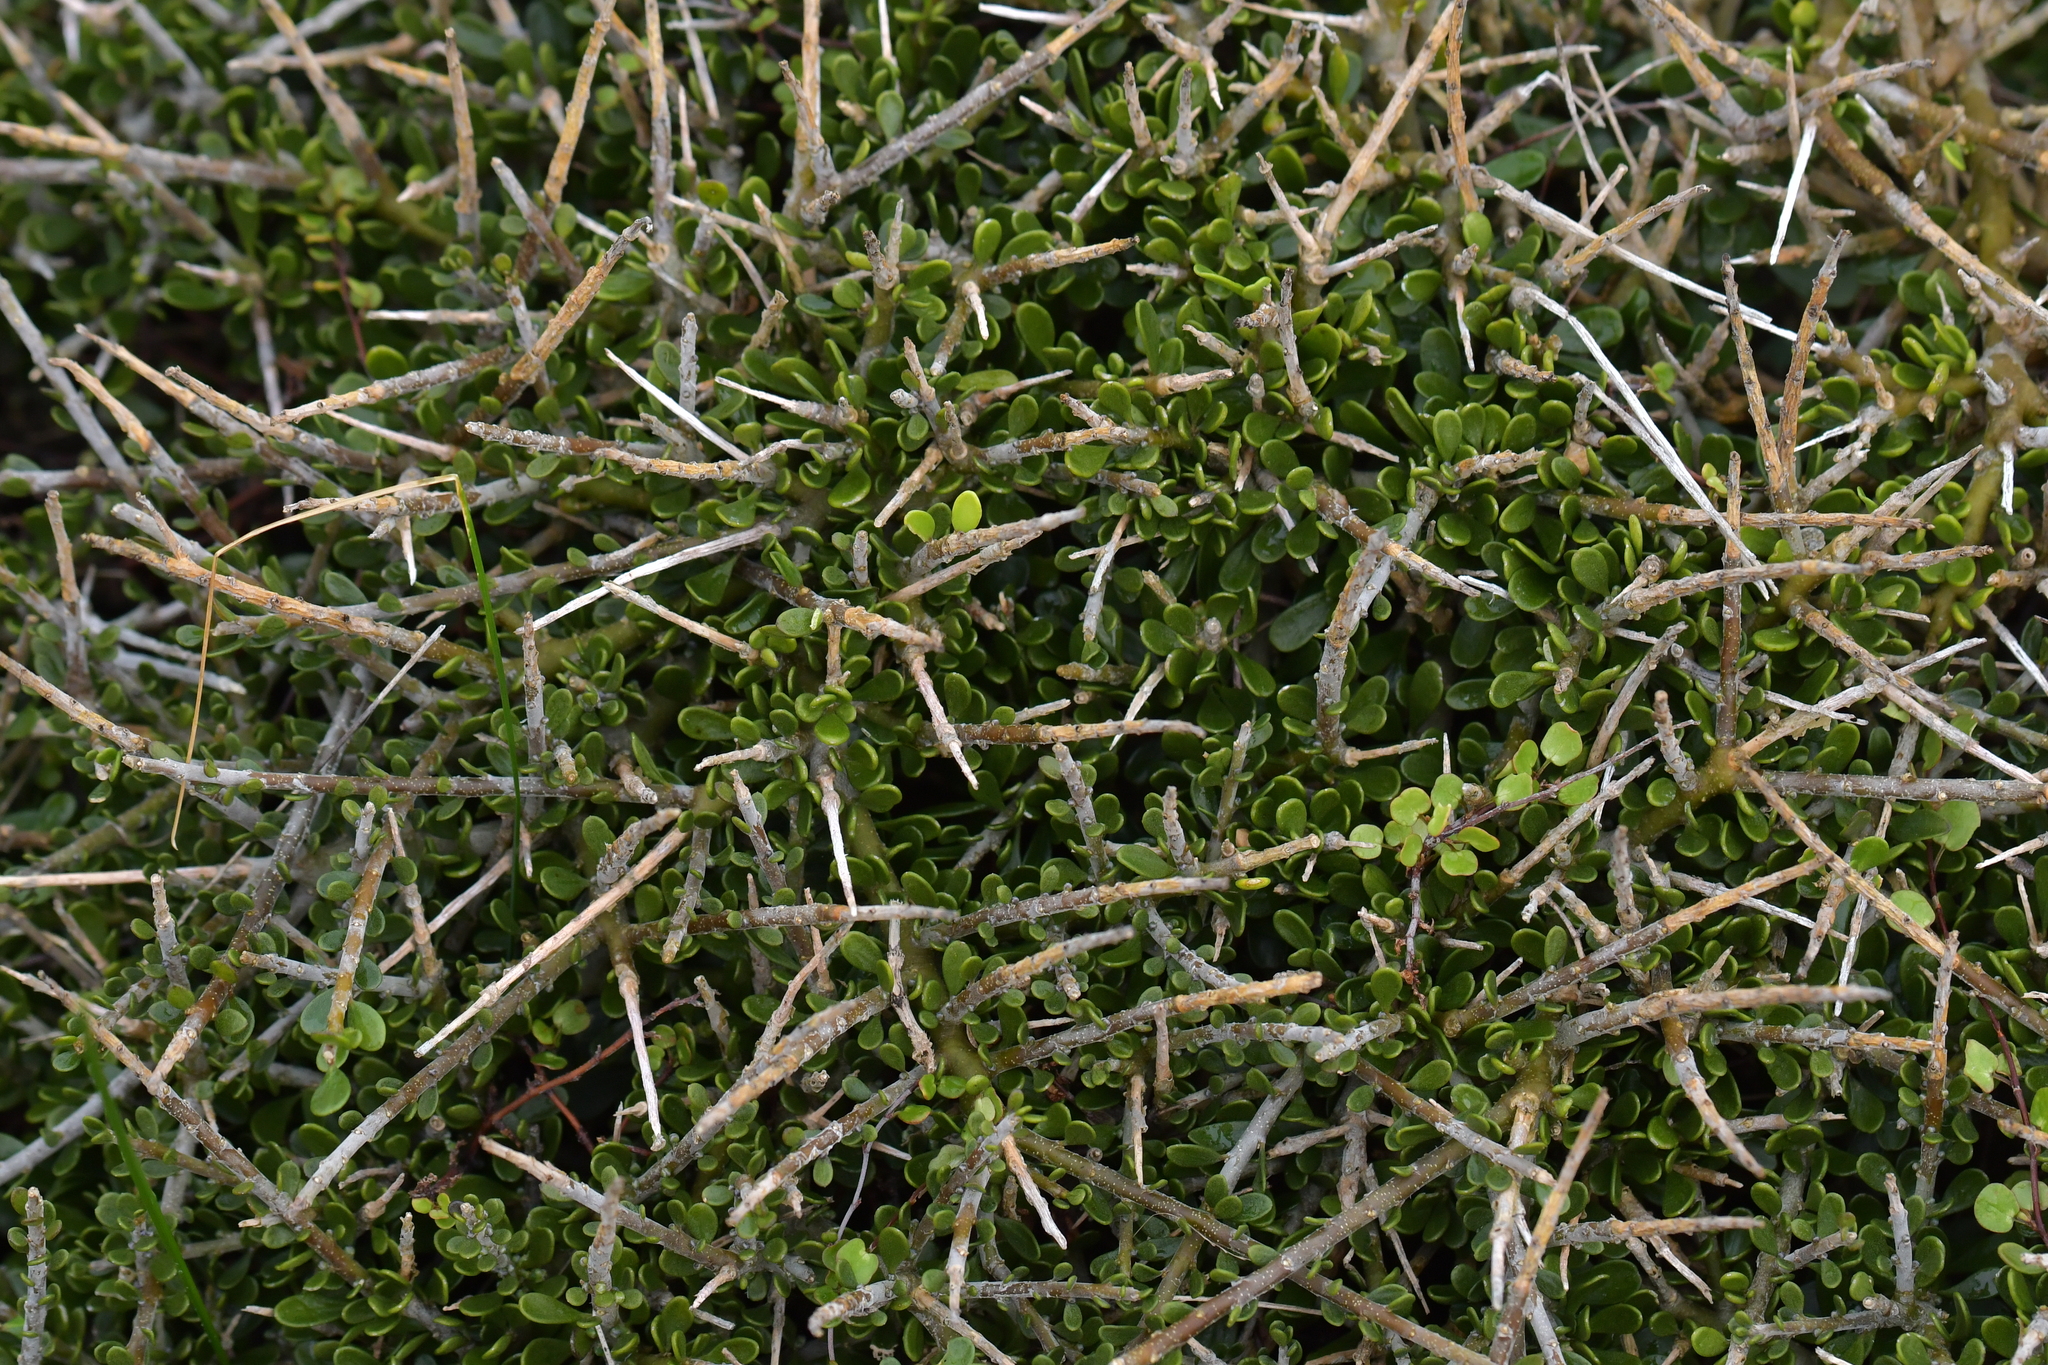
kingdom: Plantae
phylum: Tracheophyta
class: Magnoliopsida
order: Malpighiales
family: Violaceae
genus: Melicytus
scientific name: Melicytus crassifolius
